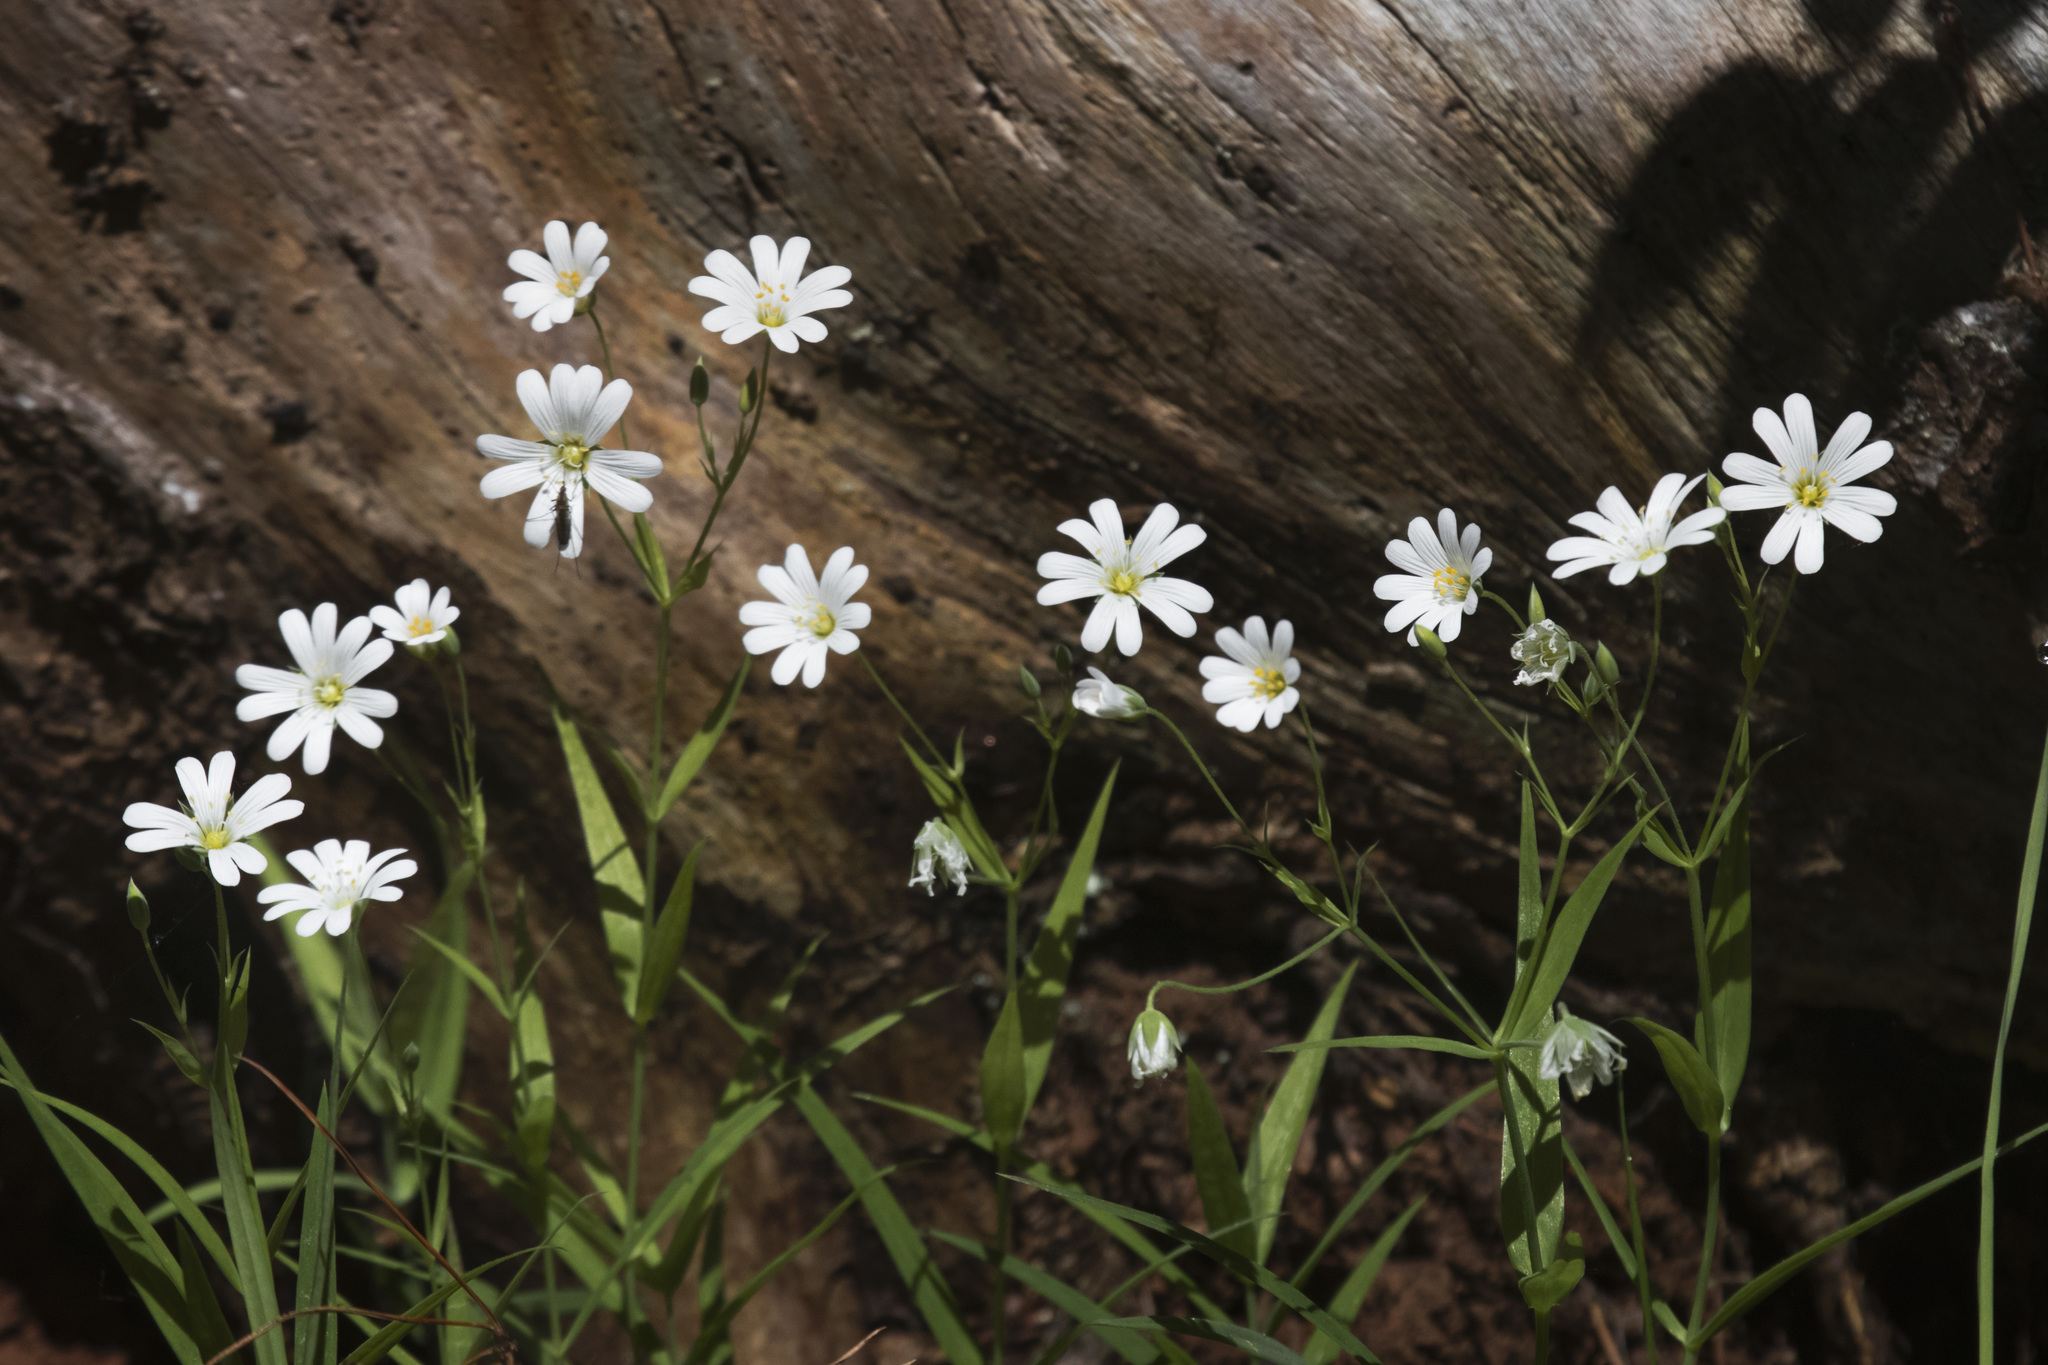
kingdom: Plantae
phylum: Tracheophyta
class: Magnoliopsida
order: Caryophyllales
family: Caryophyllaceae
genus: Rabelera
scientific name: Rabelera holostea
